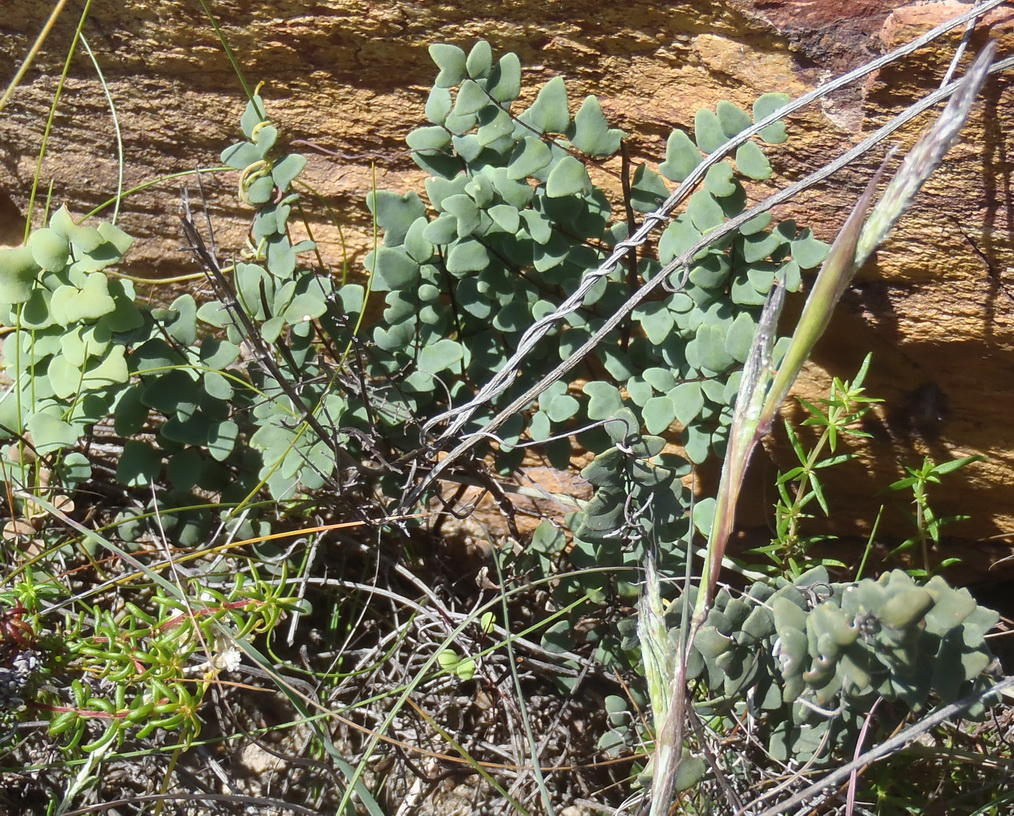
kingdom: Plantae
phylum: Tracheophyta
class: Polypodiopsida
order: Polypodiales
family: Pteridaceae
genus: Pellaea
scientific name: Pellaea leucomelas
